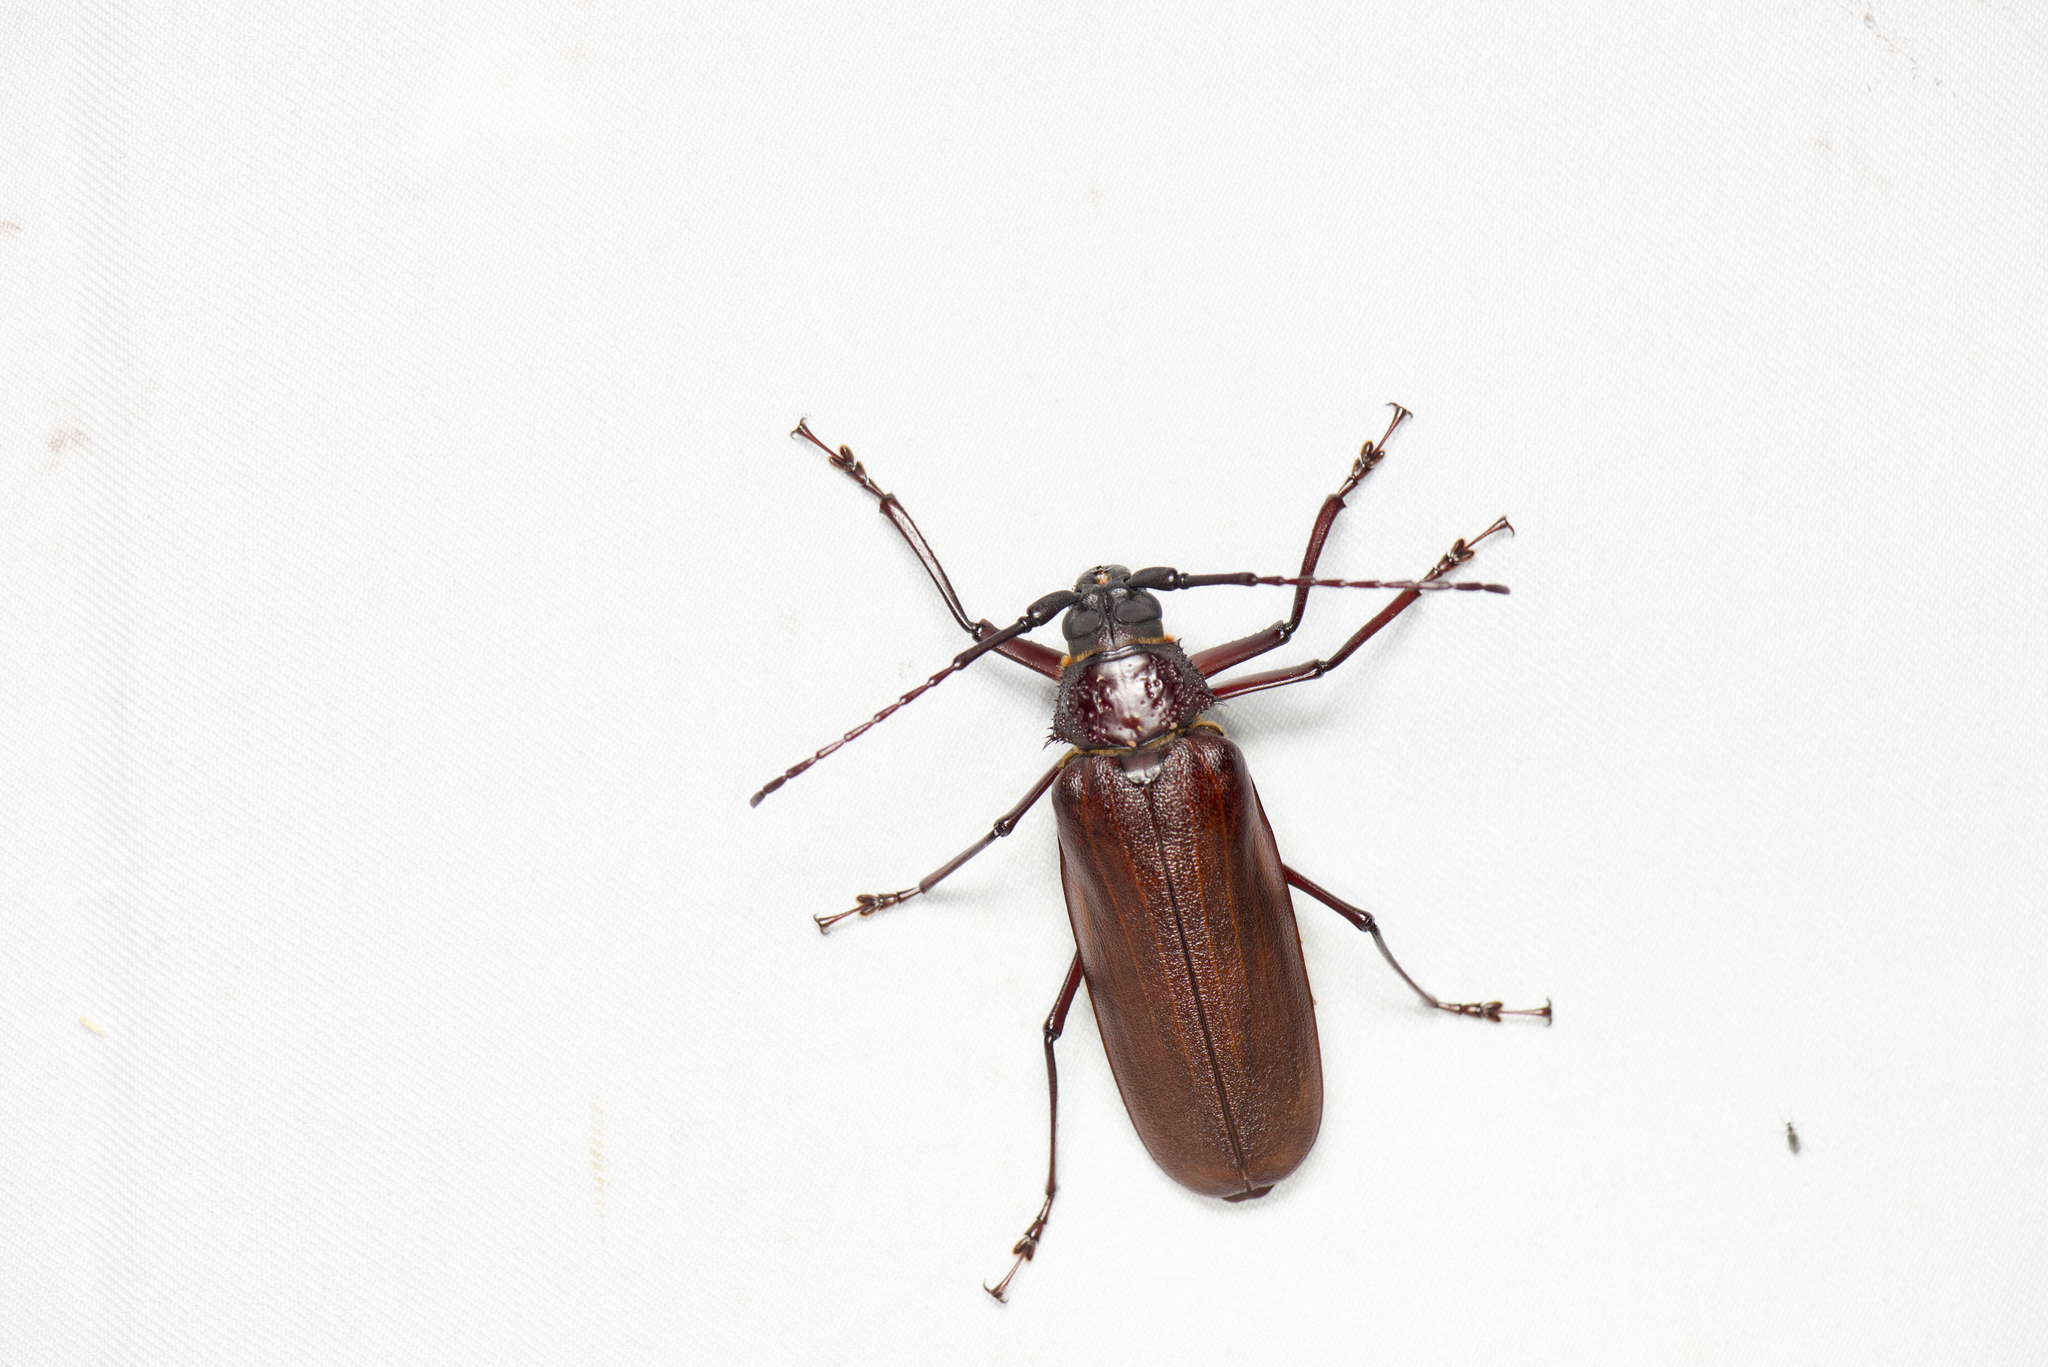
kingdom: Animalia
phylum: Arthropoda
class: Insecta
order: Coleoptera
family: Cerambycidae
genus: Bandar
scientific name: Bandar pascoei
